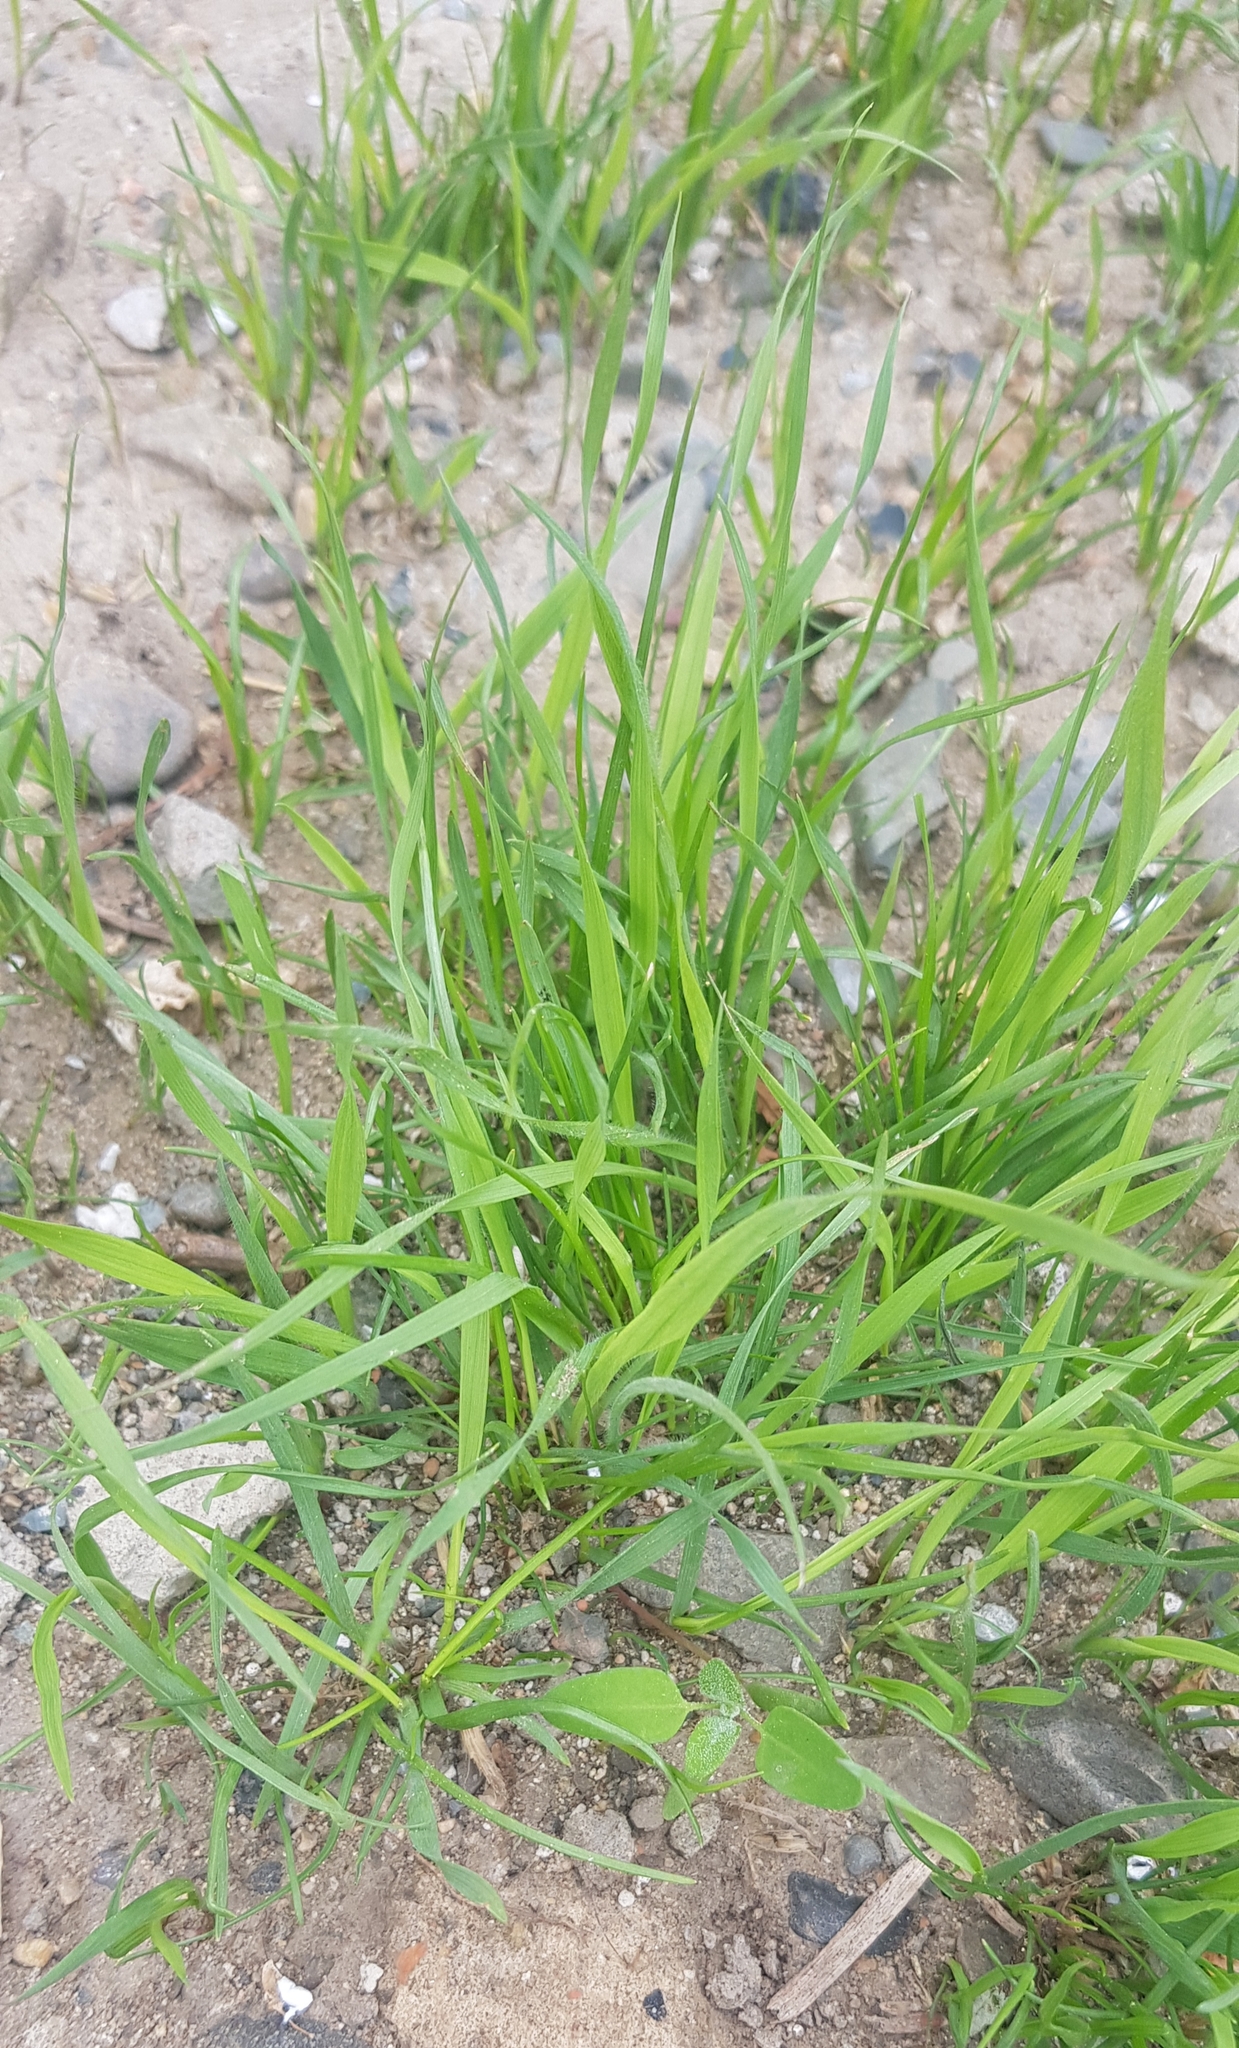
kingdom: Plantae
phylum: Tracheophyta
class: Liliopsida
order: Poales
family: Poaceae
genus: Eragrostis
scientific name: Eragrostis minor
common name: Small love-grass
